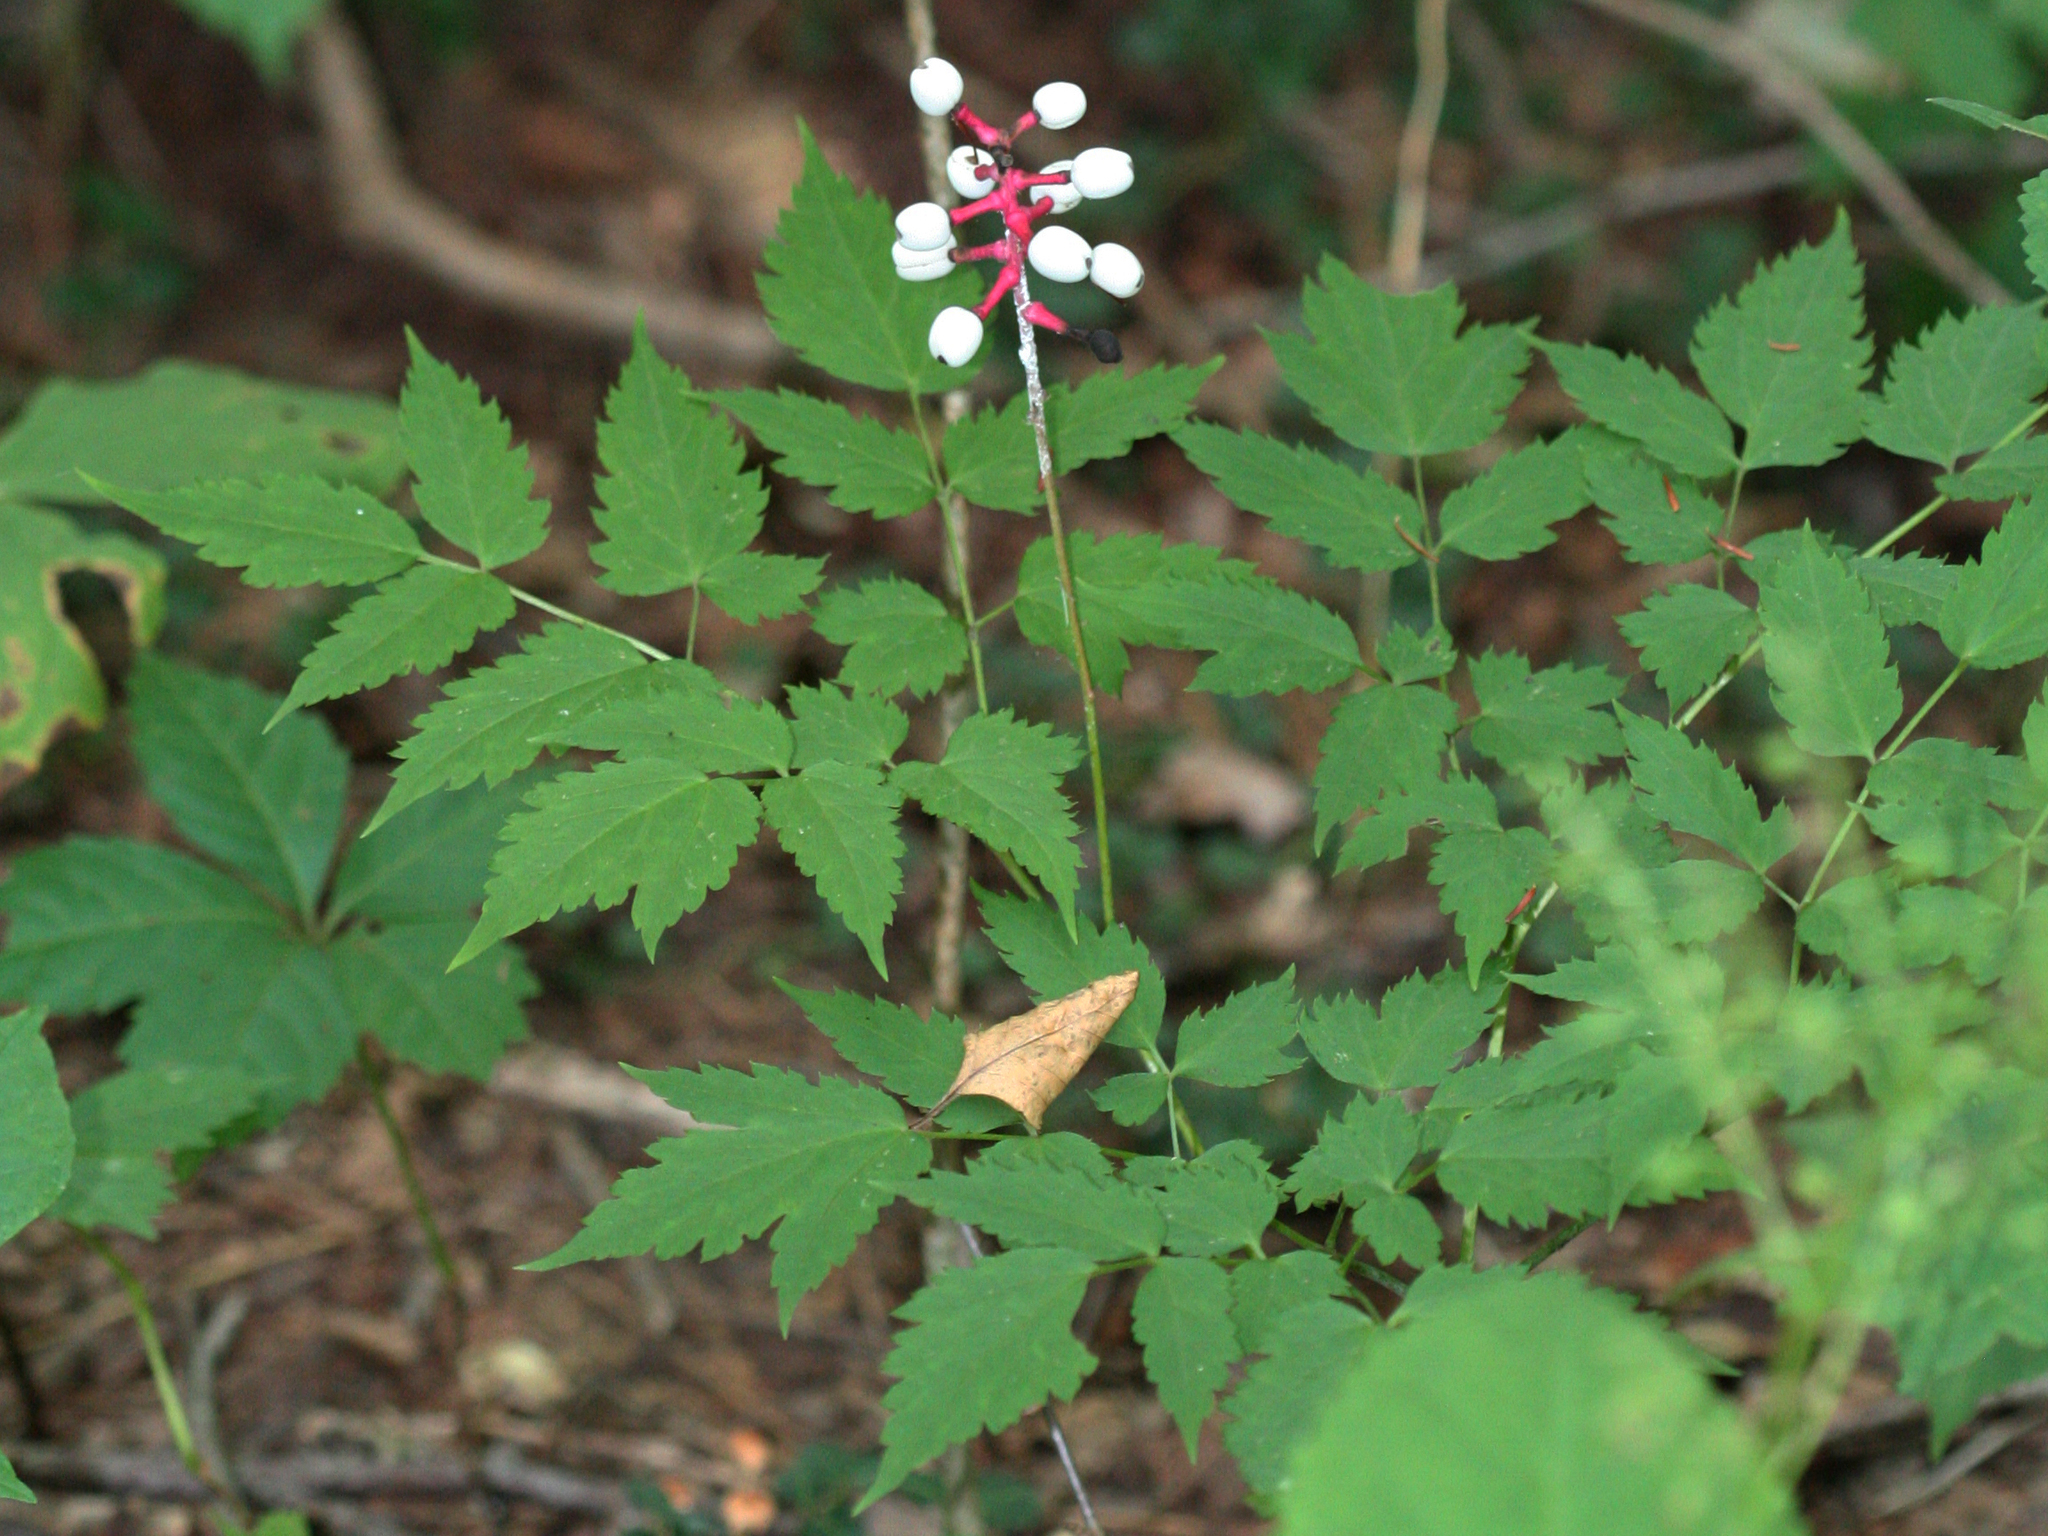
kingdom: Plantae
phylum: Tracheophyta
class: Magnoliopsida
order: Ranunculales
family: Ranunculaceae
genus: Actaea
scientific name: Actaea pachypoda
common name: Doll's-eyes
